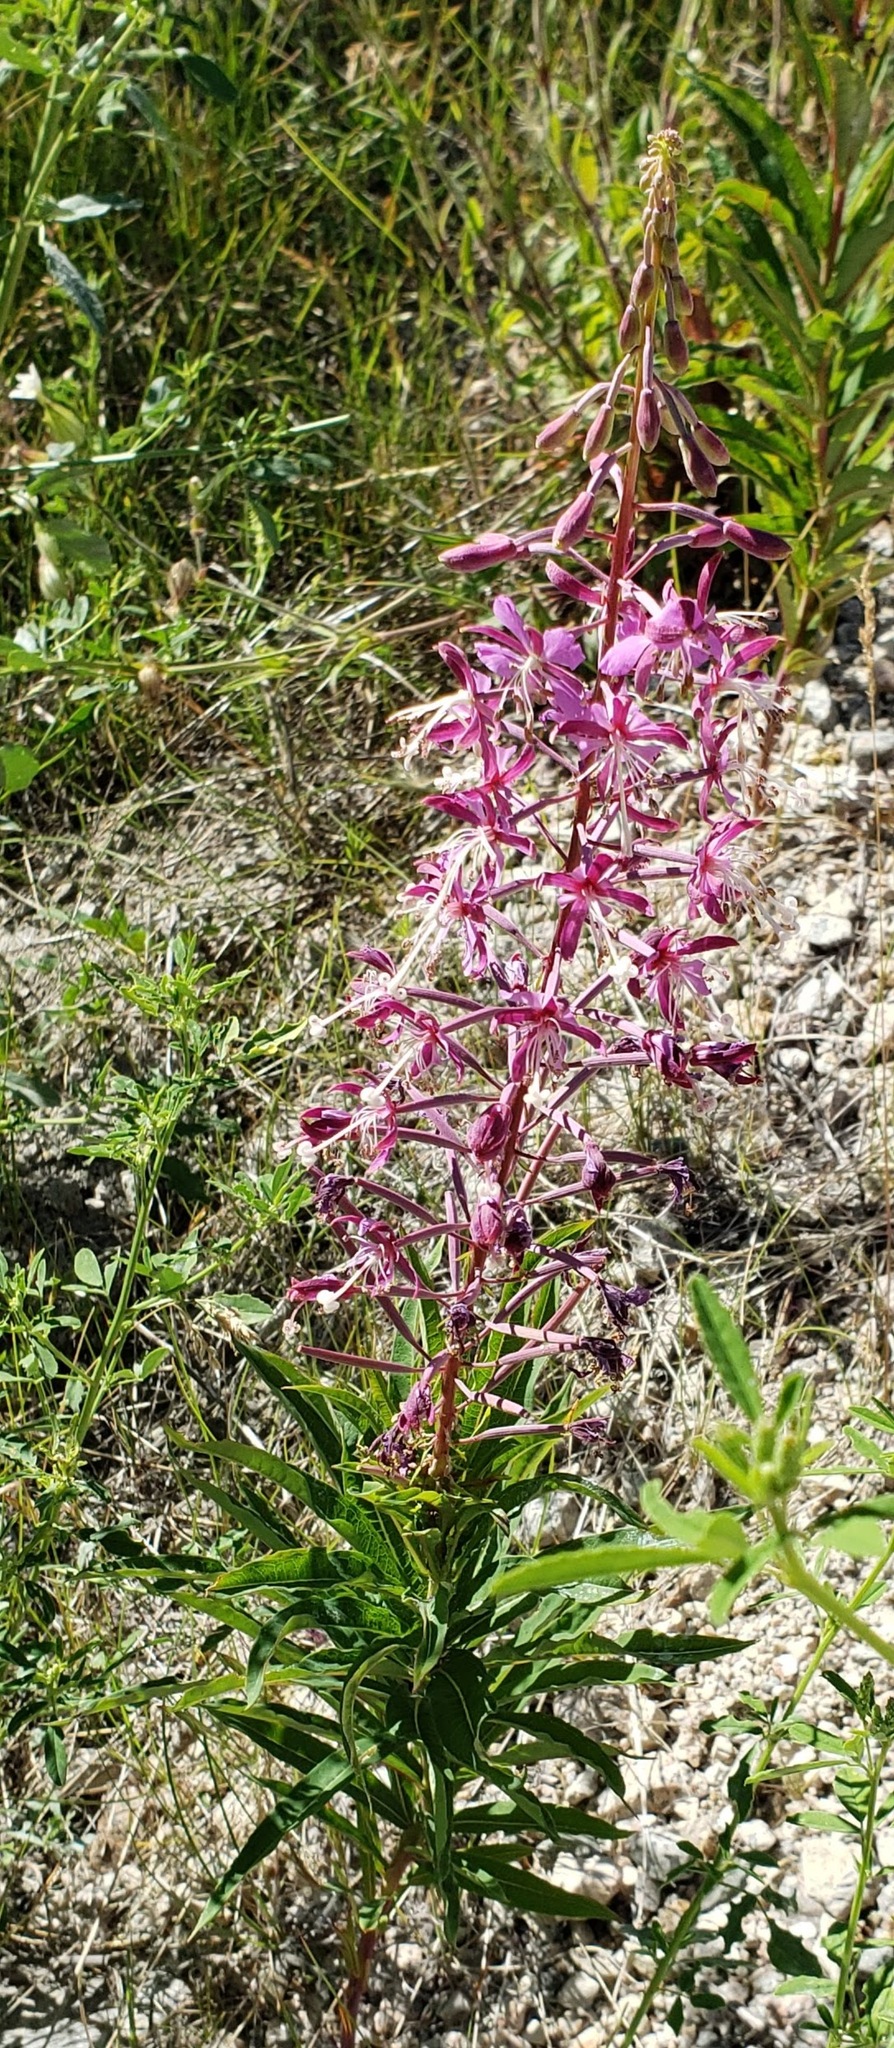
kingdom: Plantae
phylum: Tracheophyta
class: Magnoliopsida
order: Myrtales
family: Onagraceae
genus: Chamaenerion
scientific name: Chamaenerion angustifolium
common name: Fireweed
